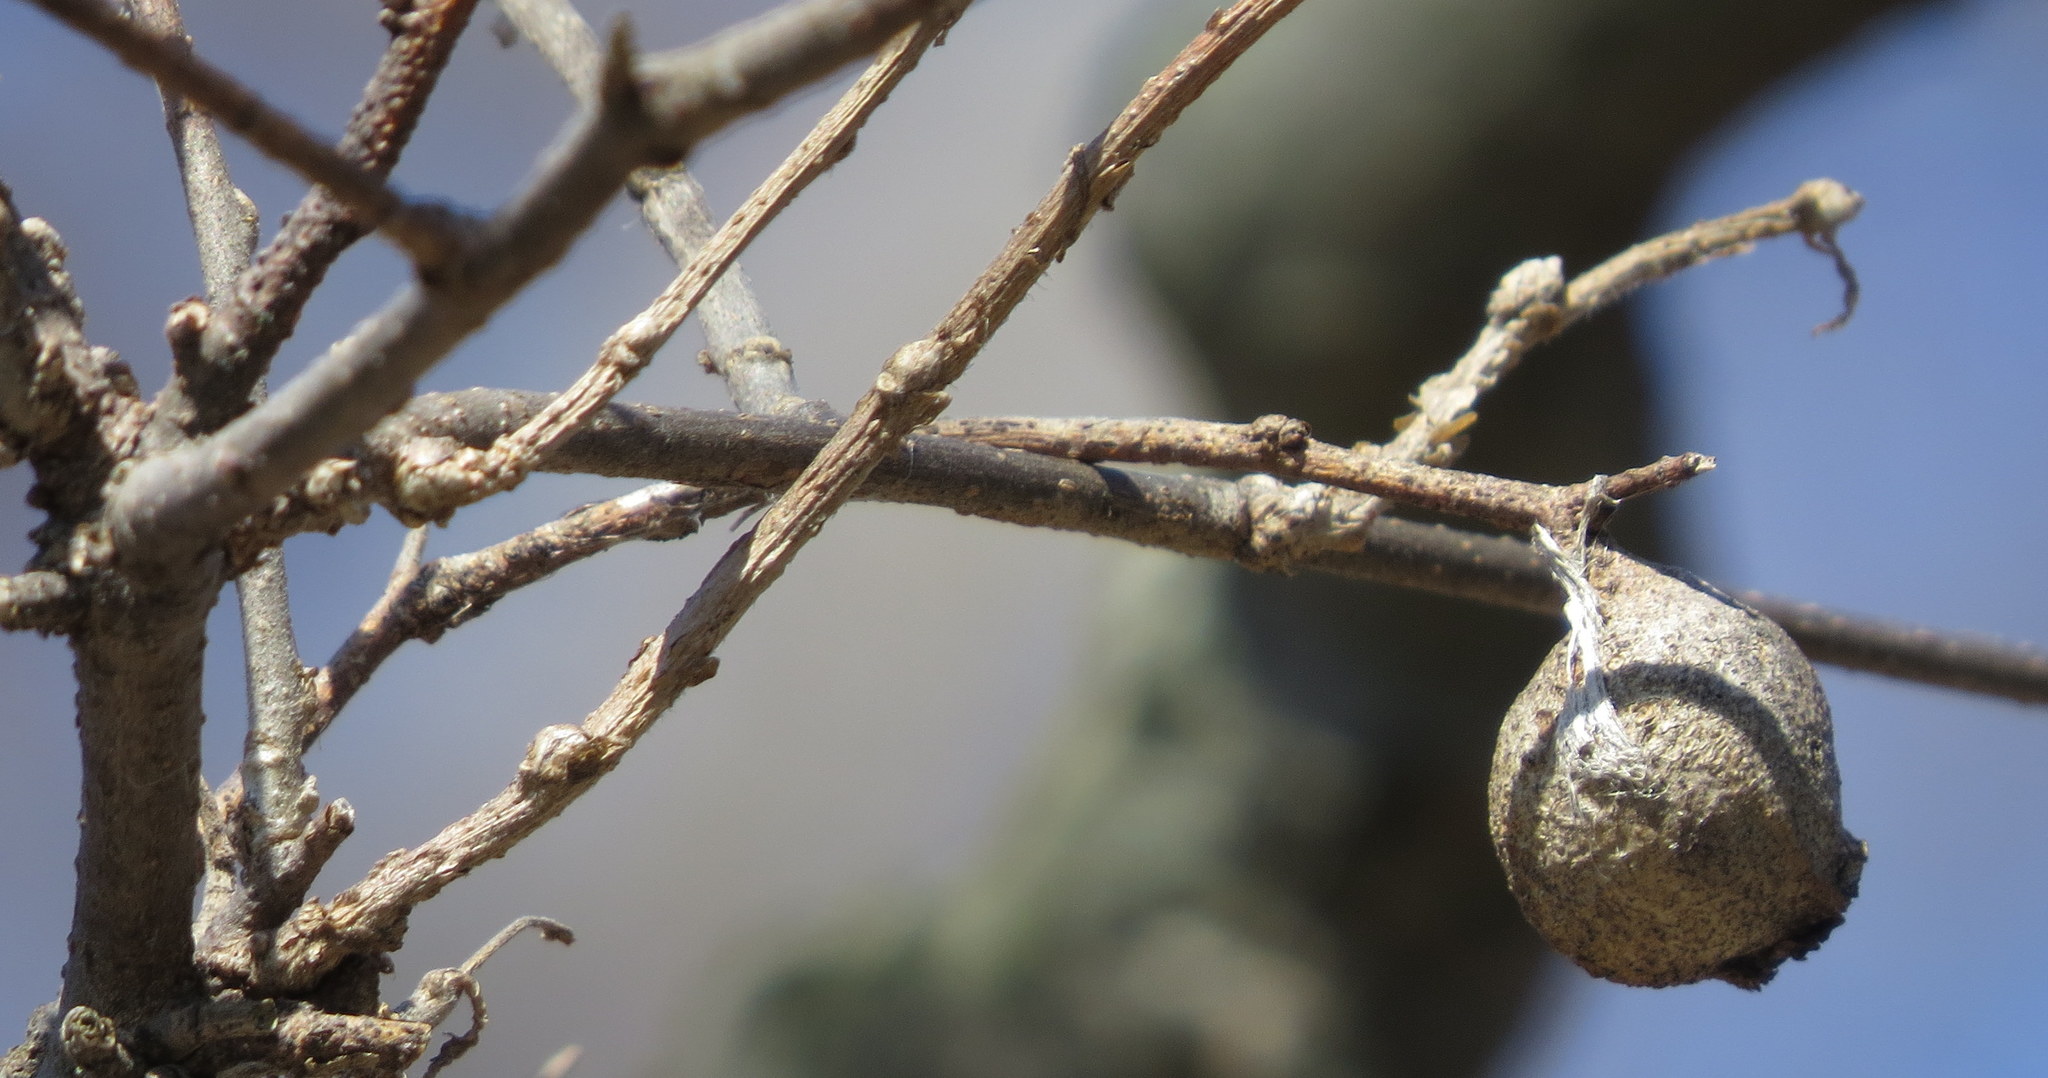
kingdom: Animalia
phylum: Arthropoda
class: Insecta
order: Hemiptera
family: Aphalaridae
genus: Pachypsylla
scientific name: Pachypsylla venusta
